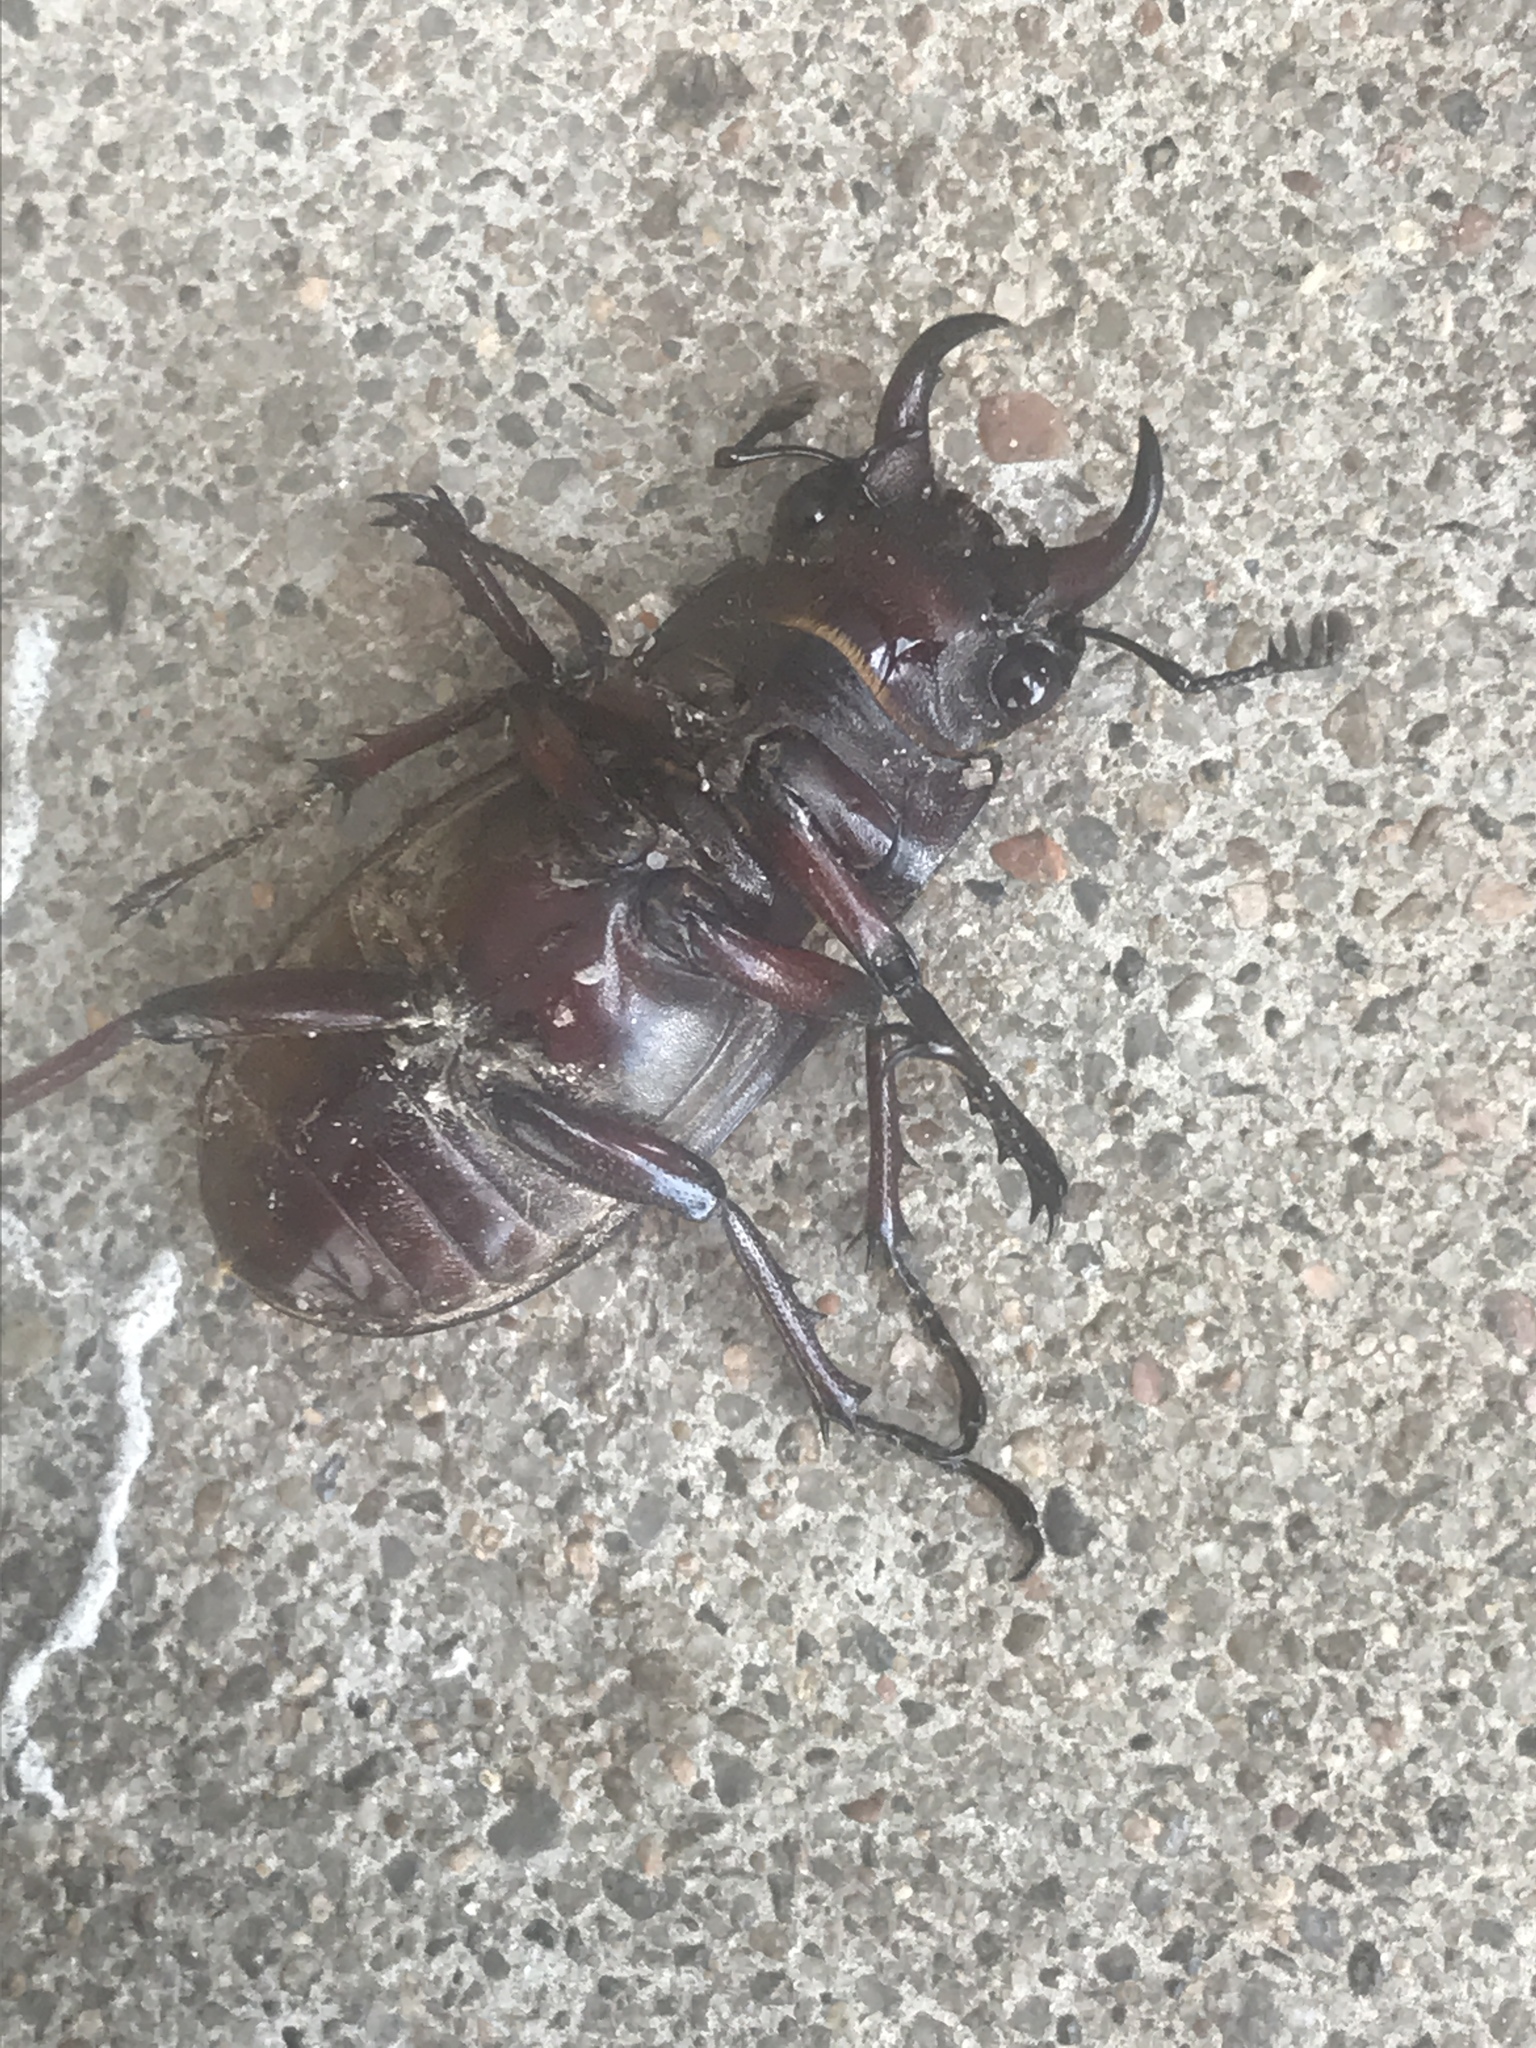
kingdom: Animalia
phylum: Arthropoda
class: Insecta
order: Coleoptera
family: Lucanidae
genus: Lucanus
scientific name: Lucanus capreolus
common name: Stag beetle
